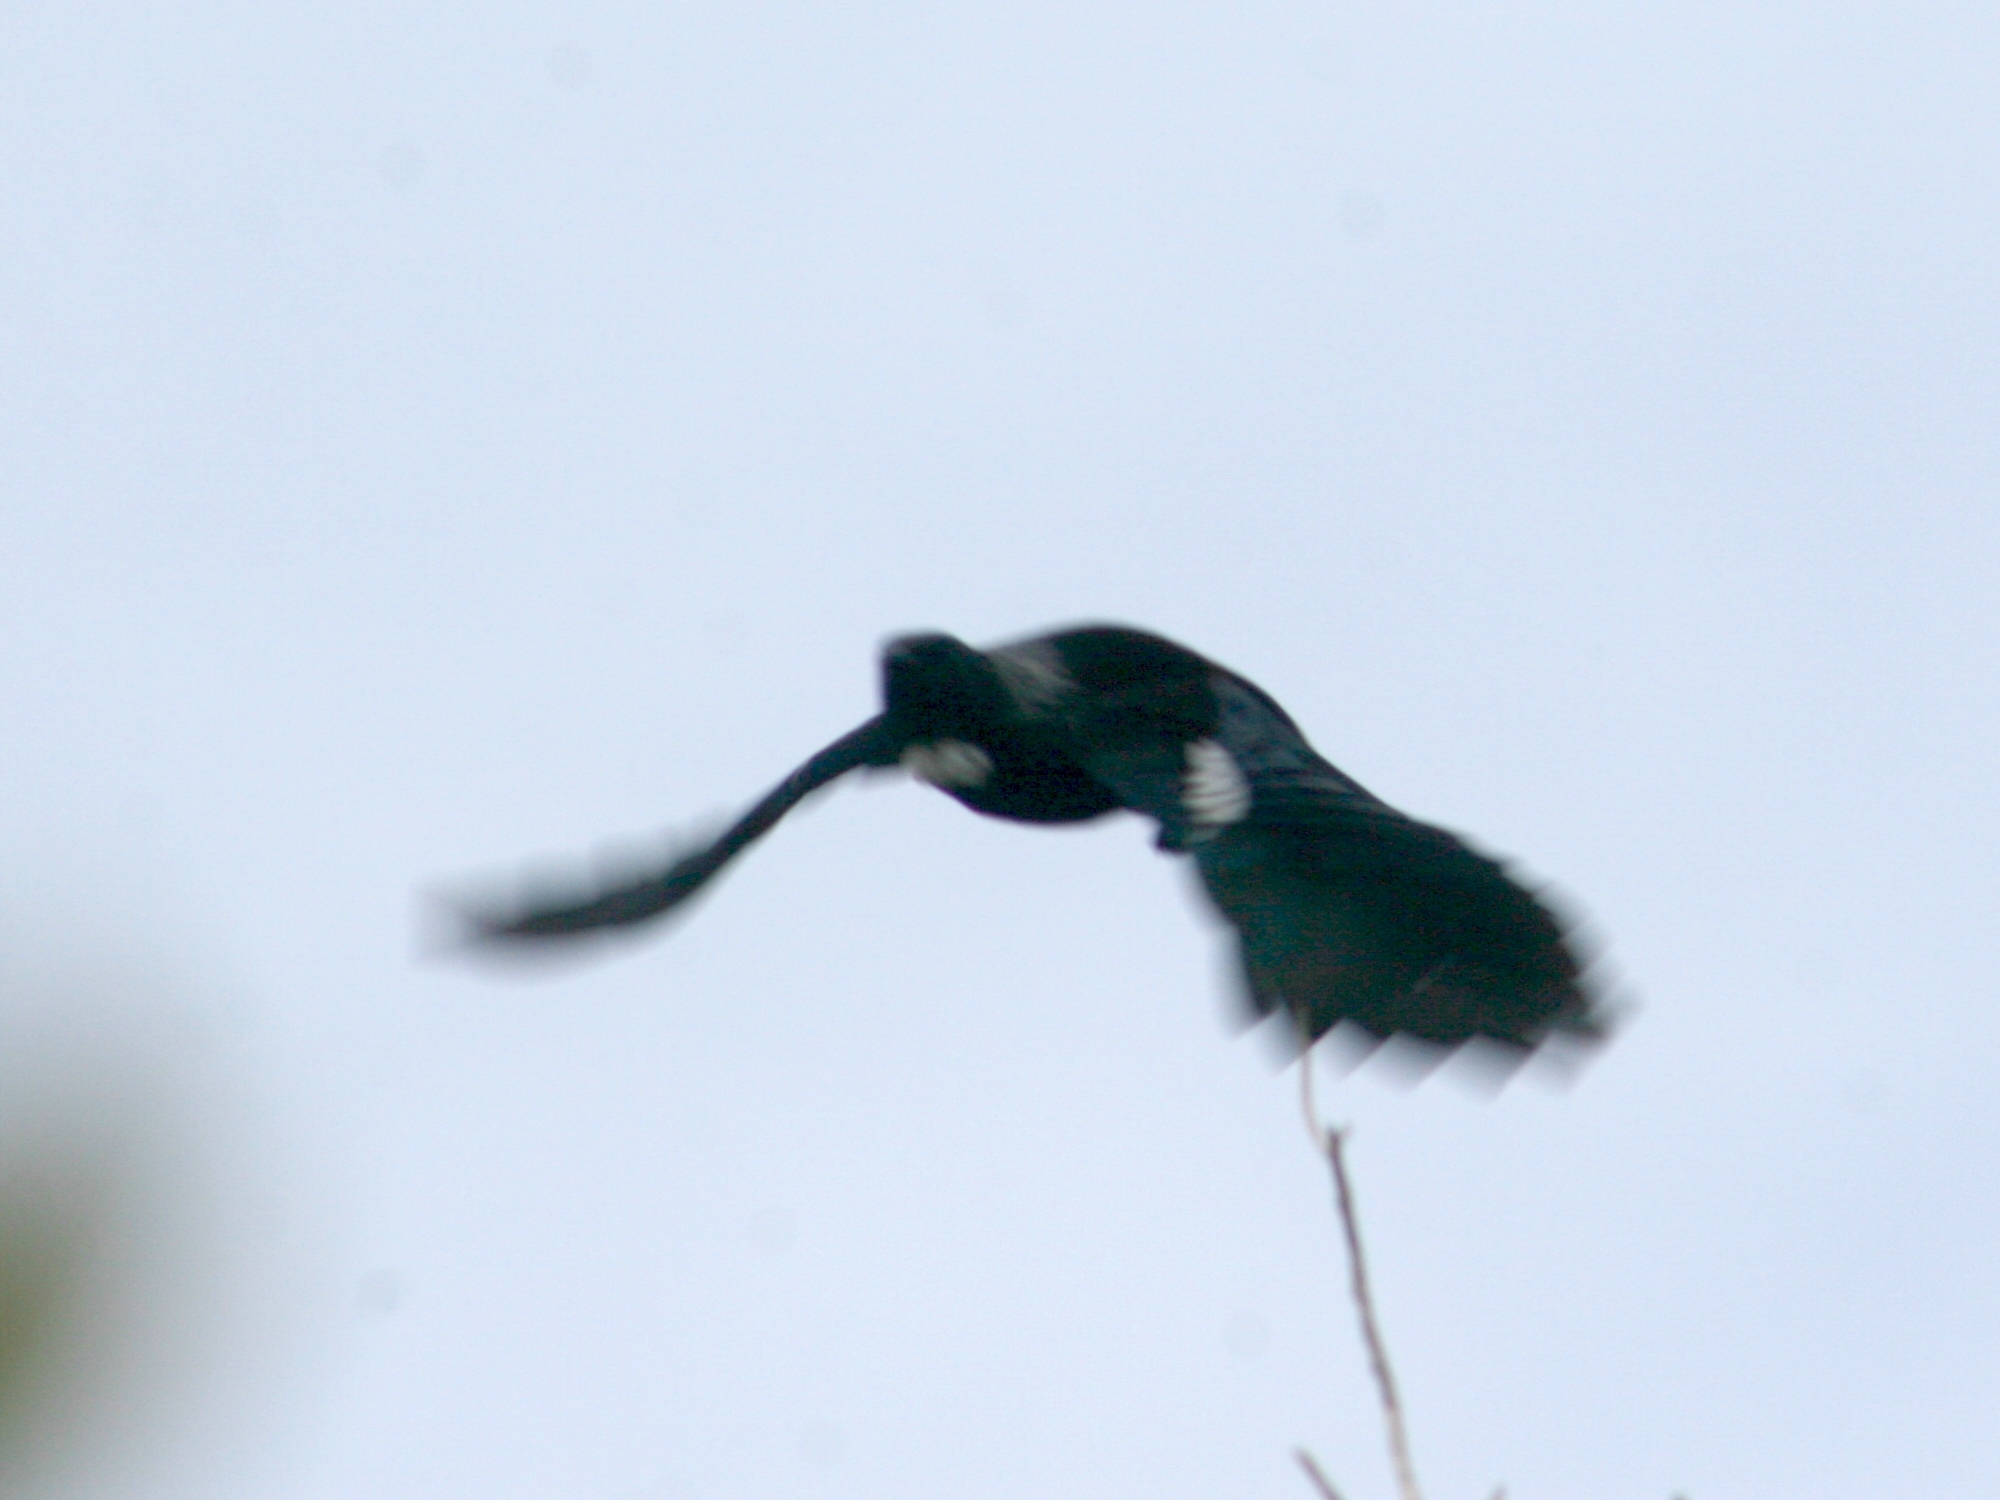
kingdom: Animalia
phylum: Chordata
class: Aves
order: Passeriformes
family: Meliphagidae
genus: Prosthemadera
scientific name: Prosthemadera novaeseelandiae
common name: Tui
